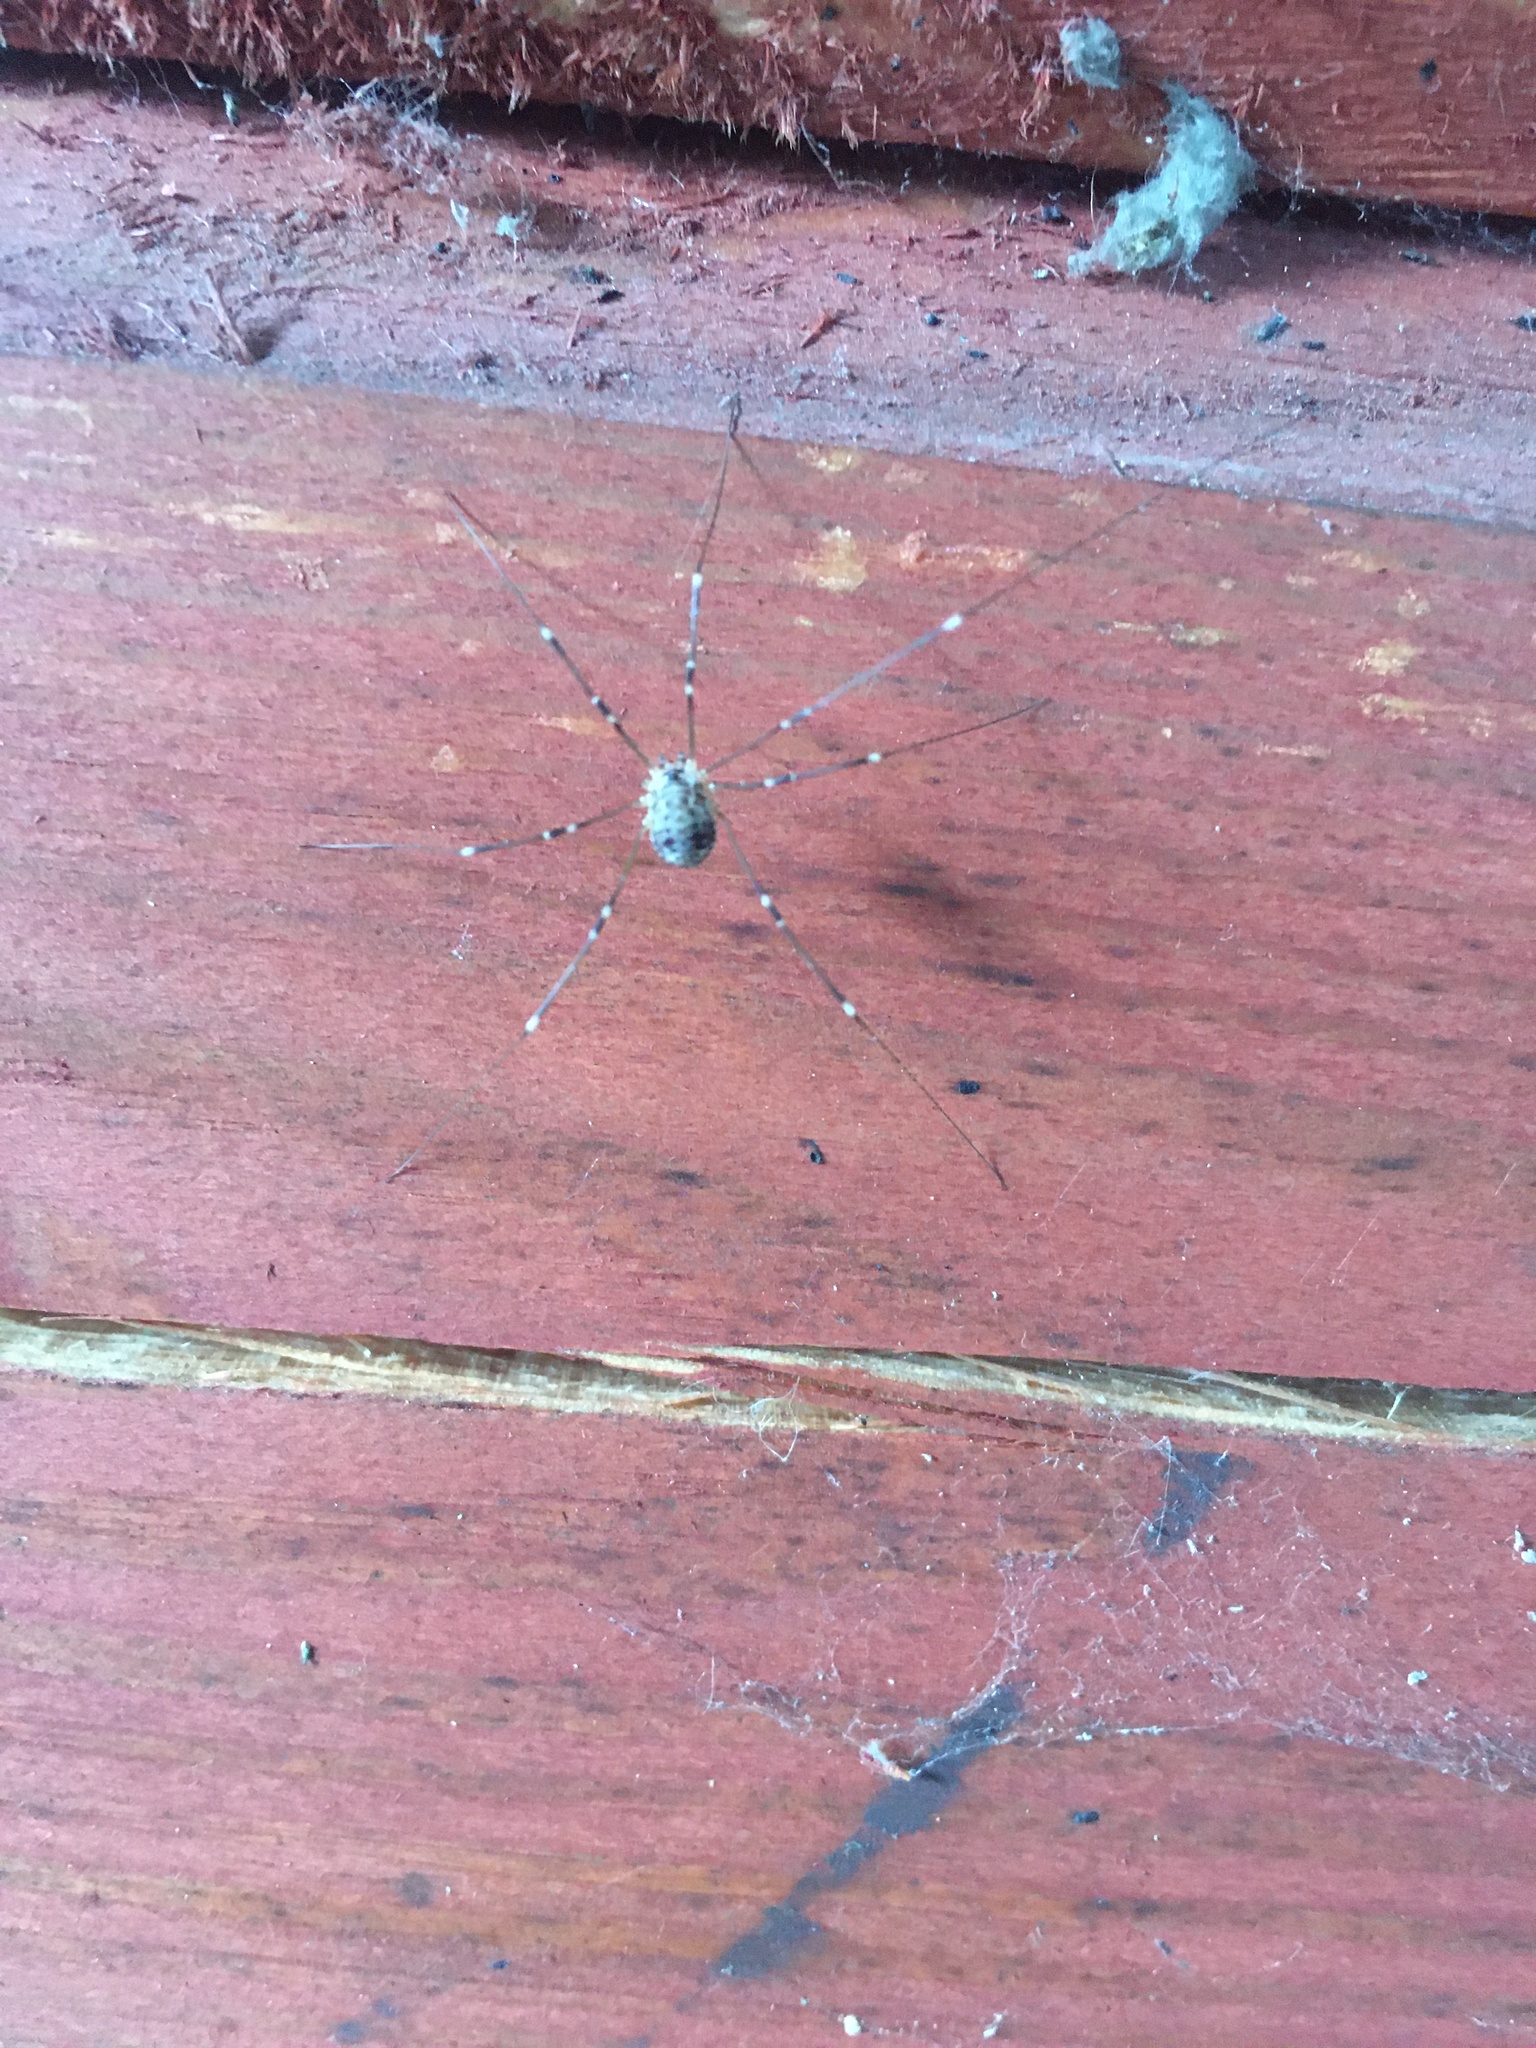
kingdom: Animalia
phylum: Arthropoda
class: Arachnida
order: Opiliones
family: Sclerosomatidae
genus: Leiobunum
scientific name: Leiobunum gracile
